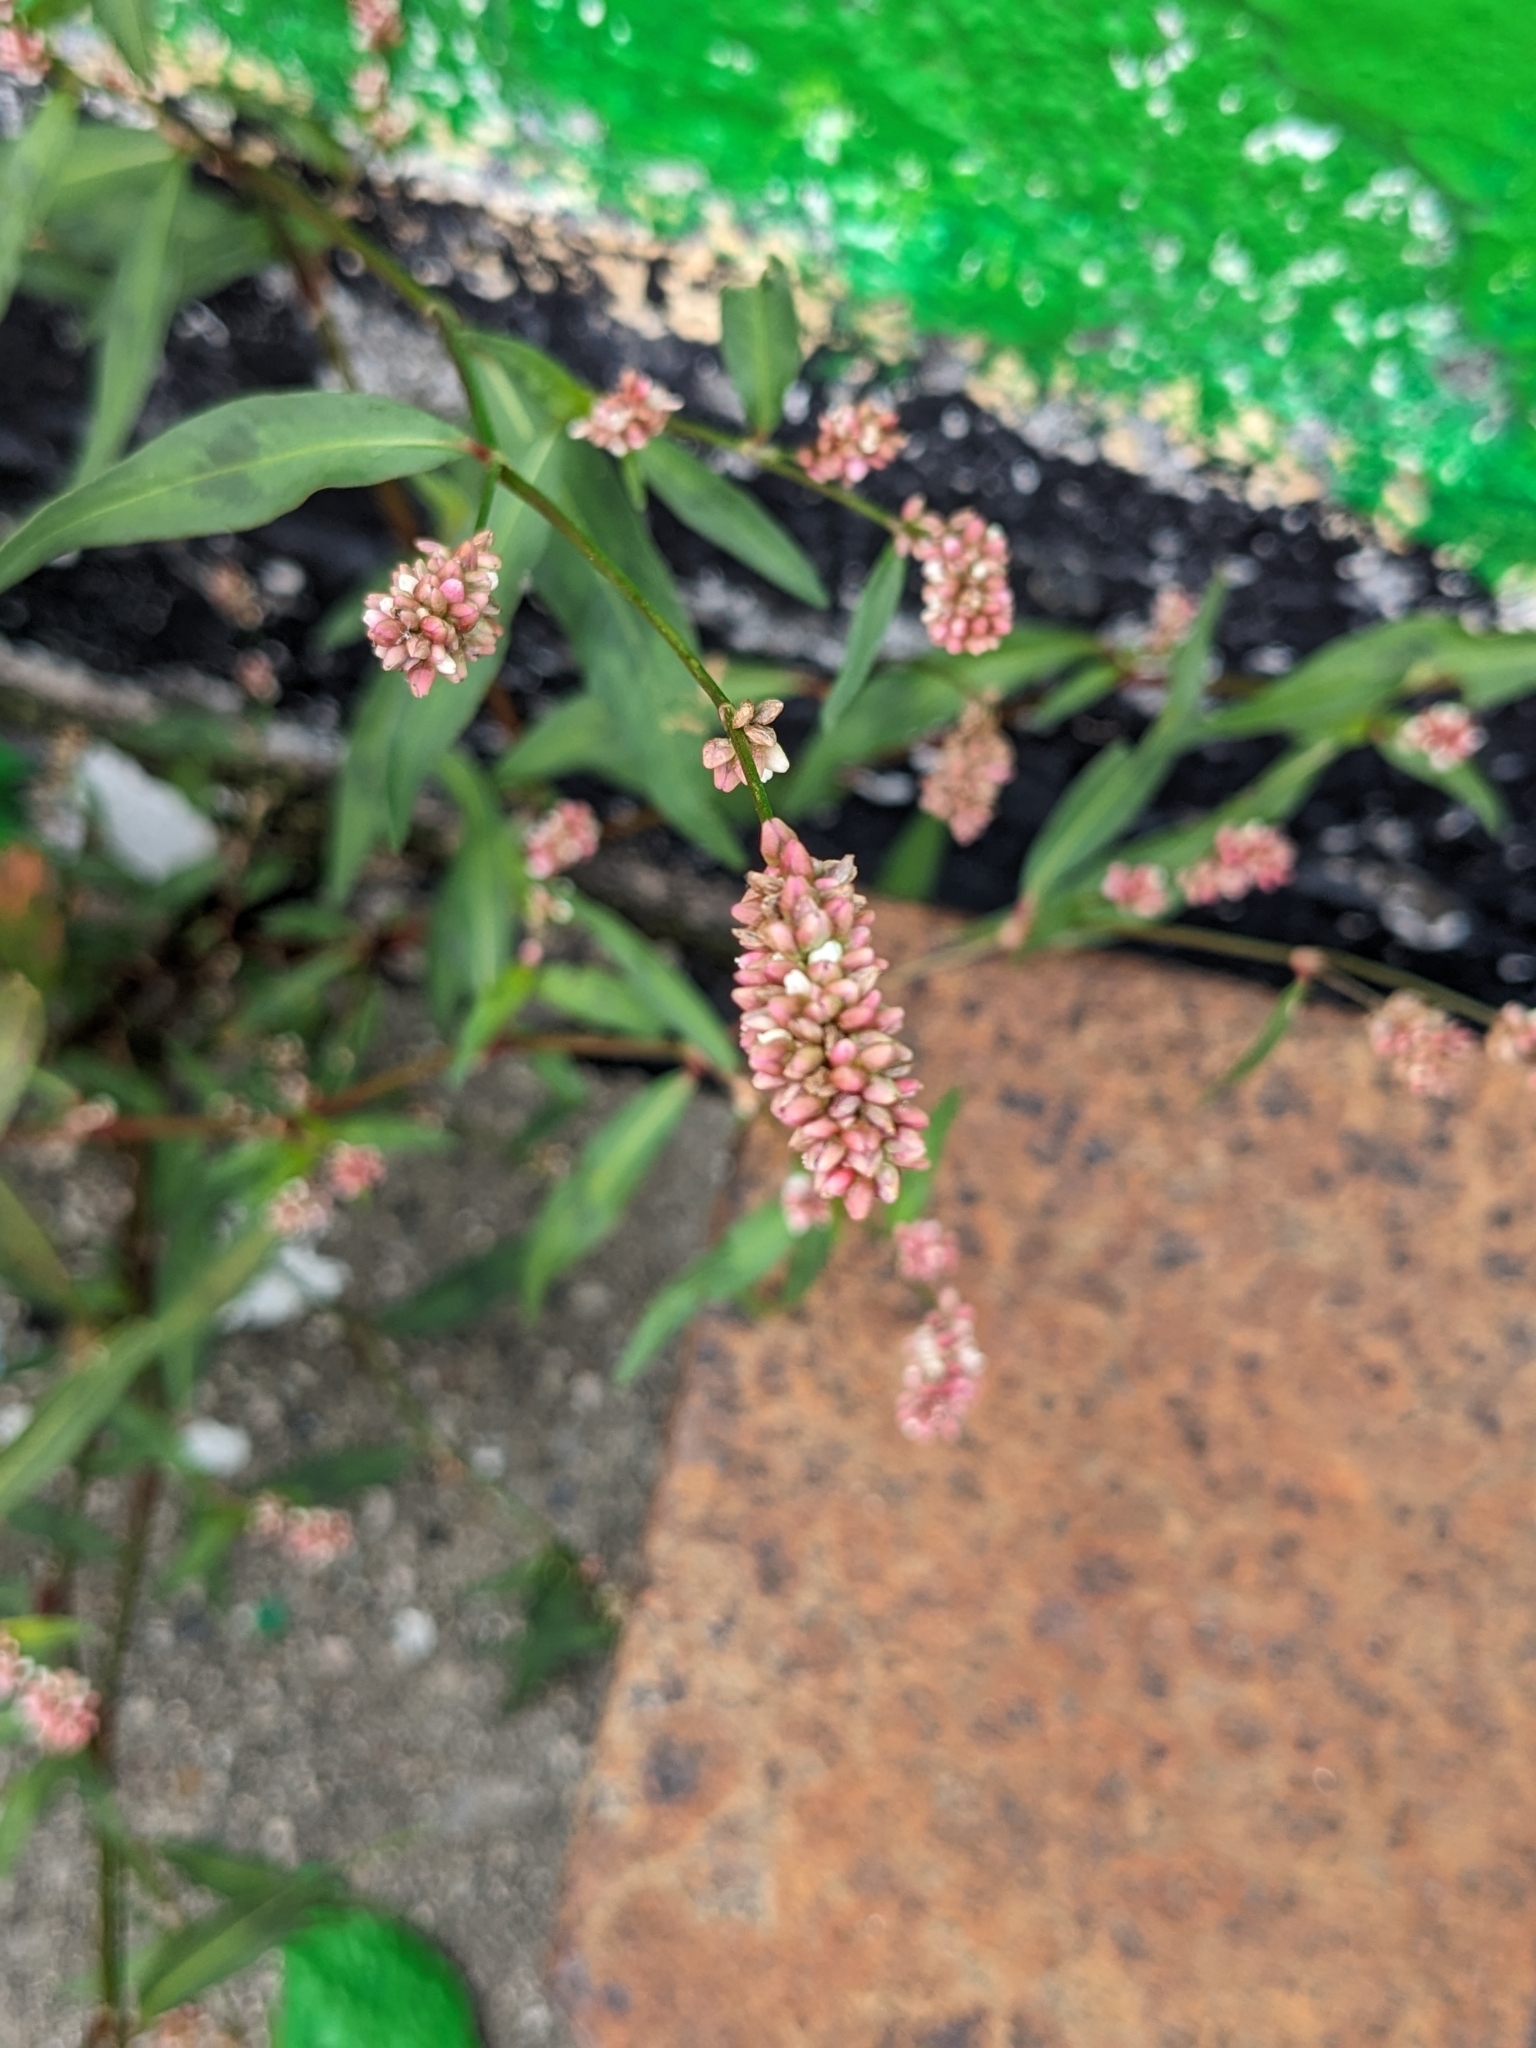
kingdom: Plantae
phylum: Tracheophyta
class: Magnoliopsida
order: Caryophyllales
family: Polygonaceae
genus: Persicaria
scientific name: Persicaria maculosa
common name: Redshank
